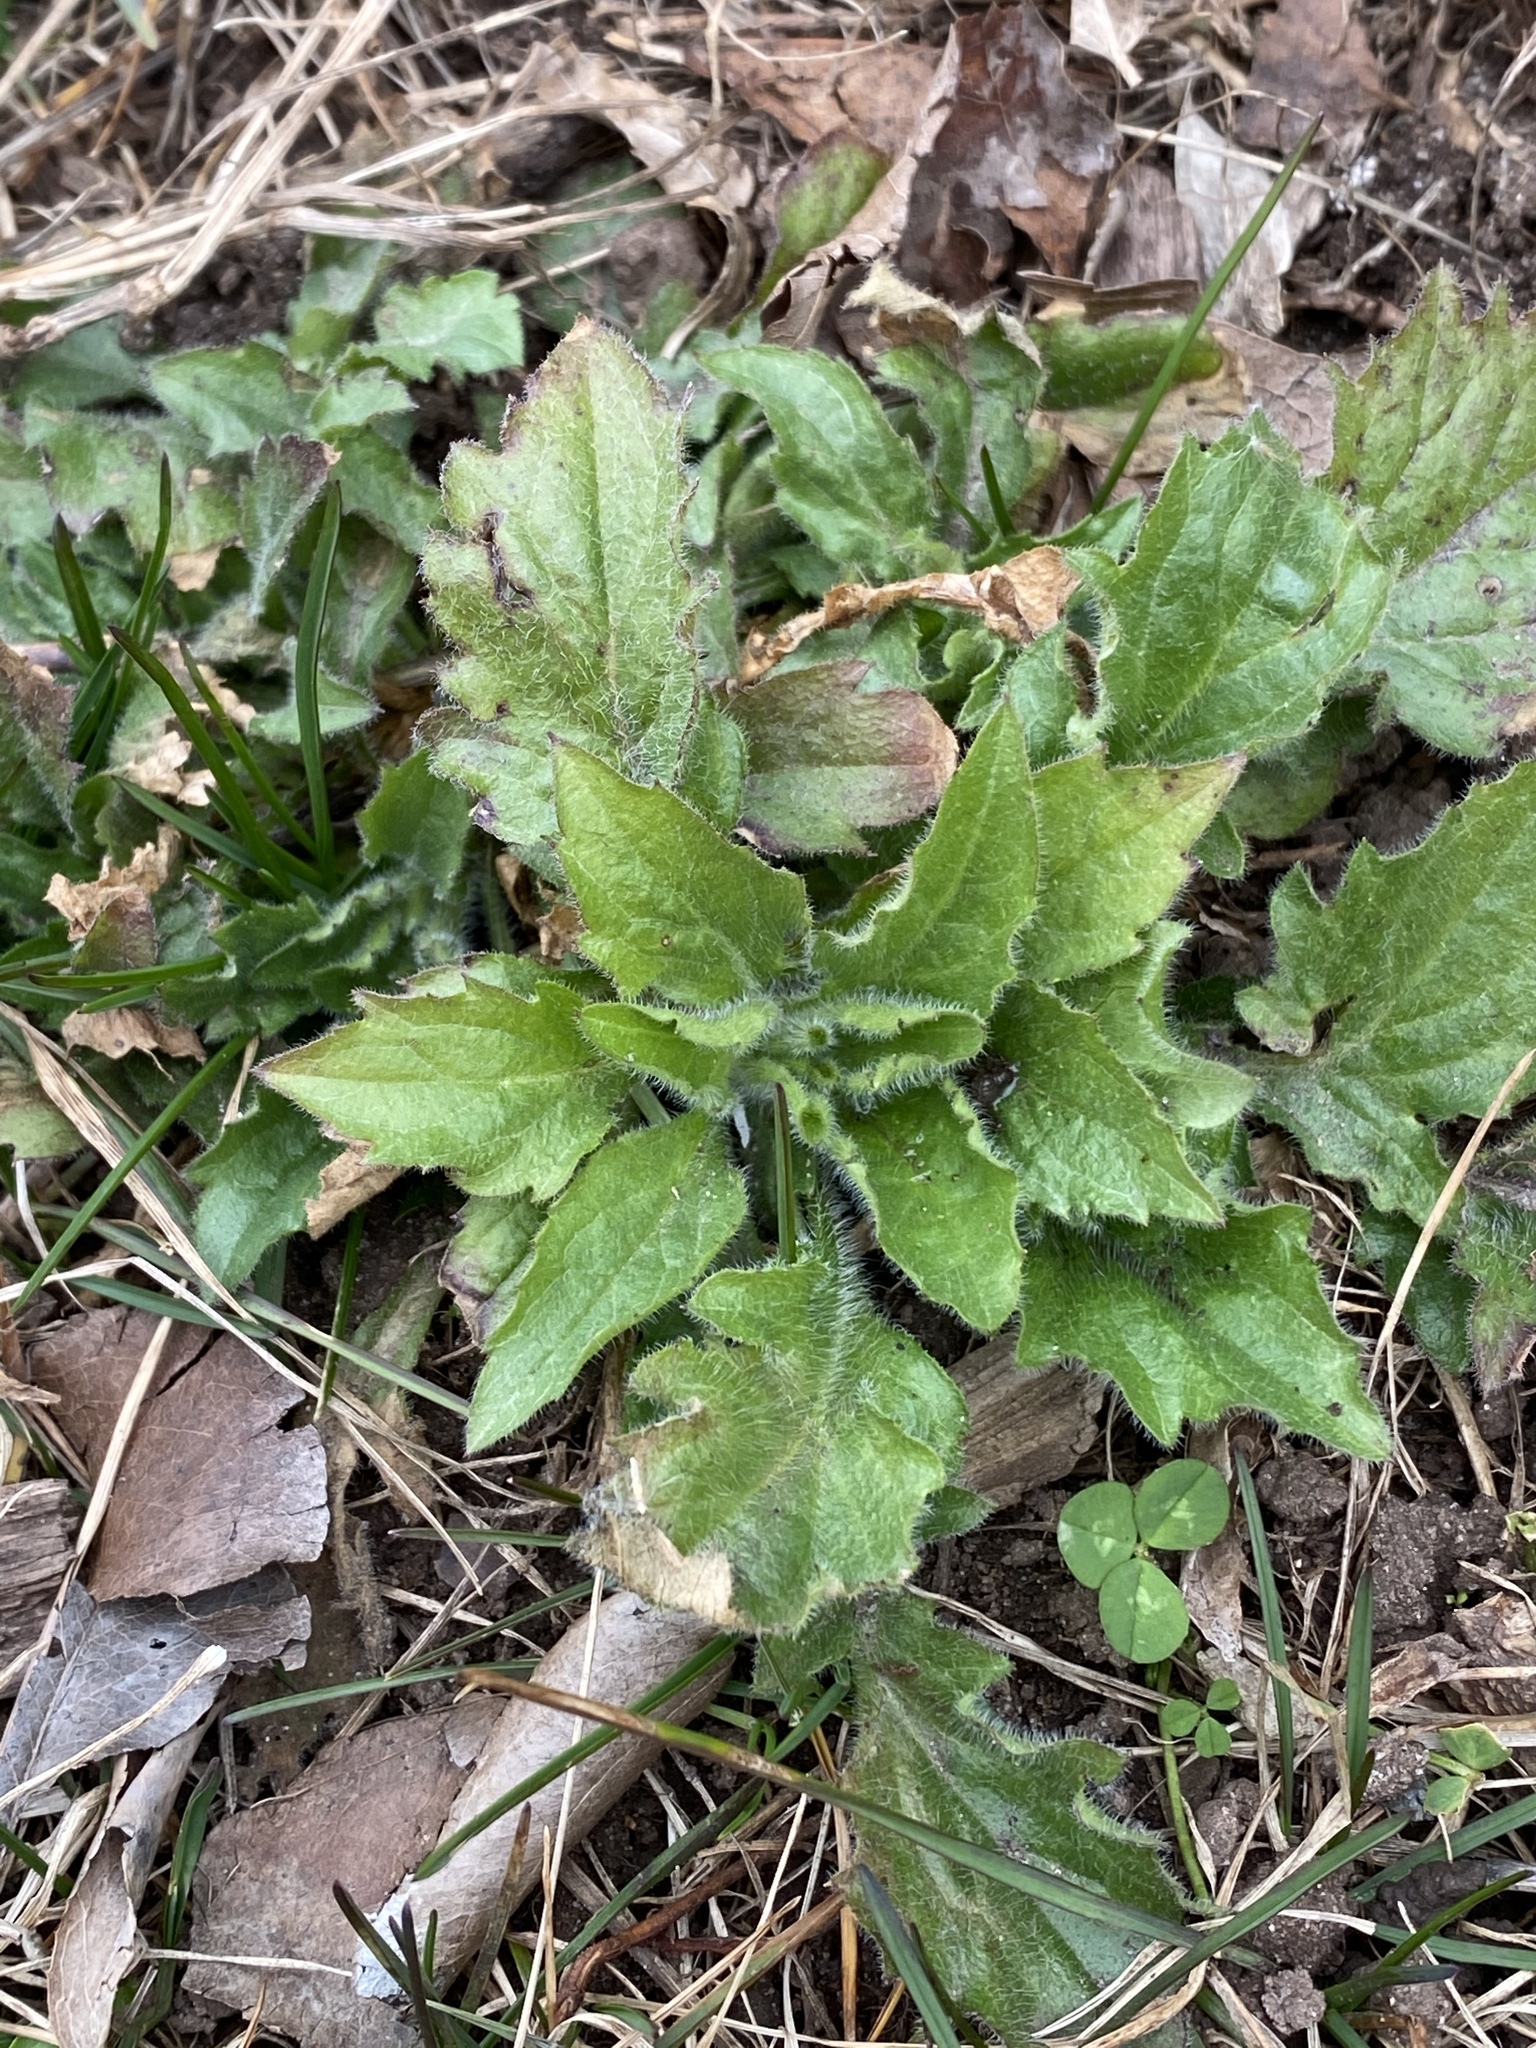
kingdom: Plantae
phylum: Tracheophyta
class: Magnoliopsida
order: Asterales
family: Asteraceae
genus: Erigeron
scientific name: Erigeron annuus
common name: Tall fleabane
